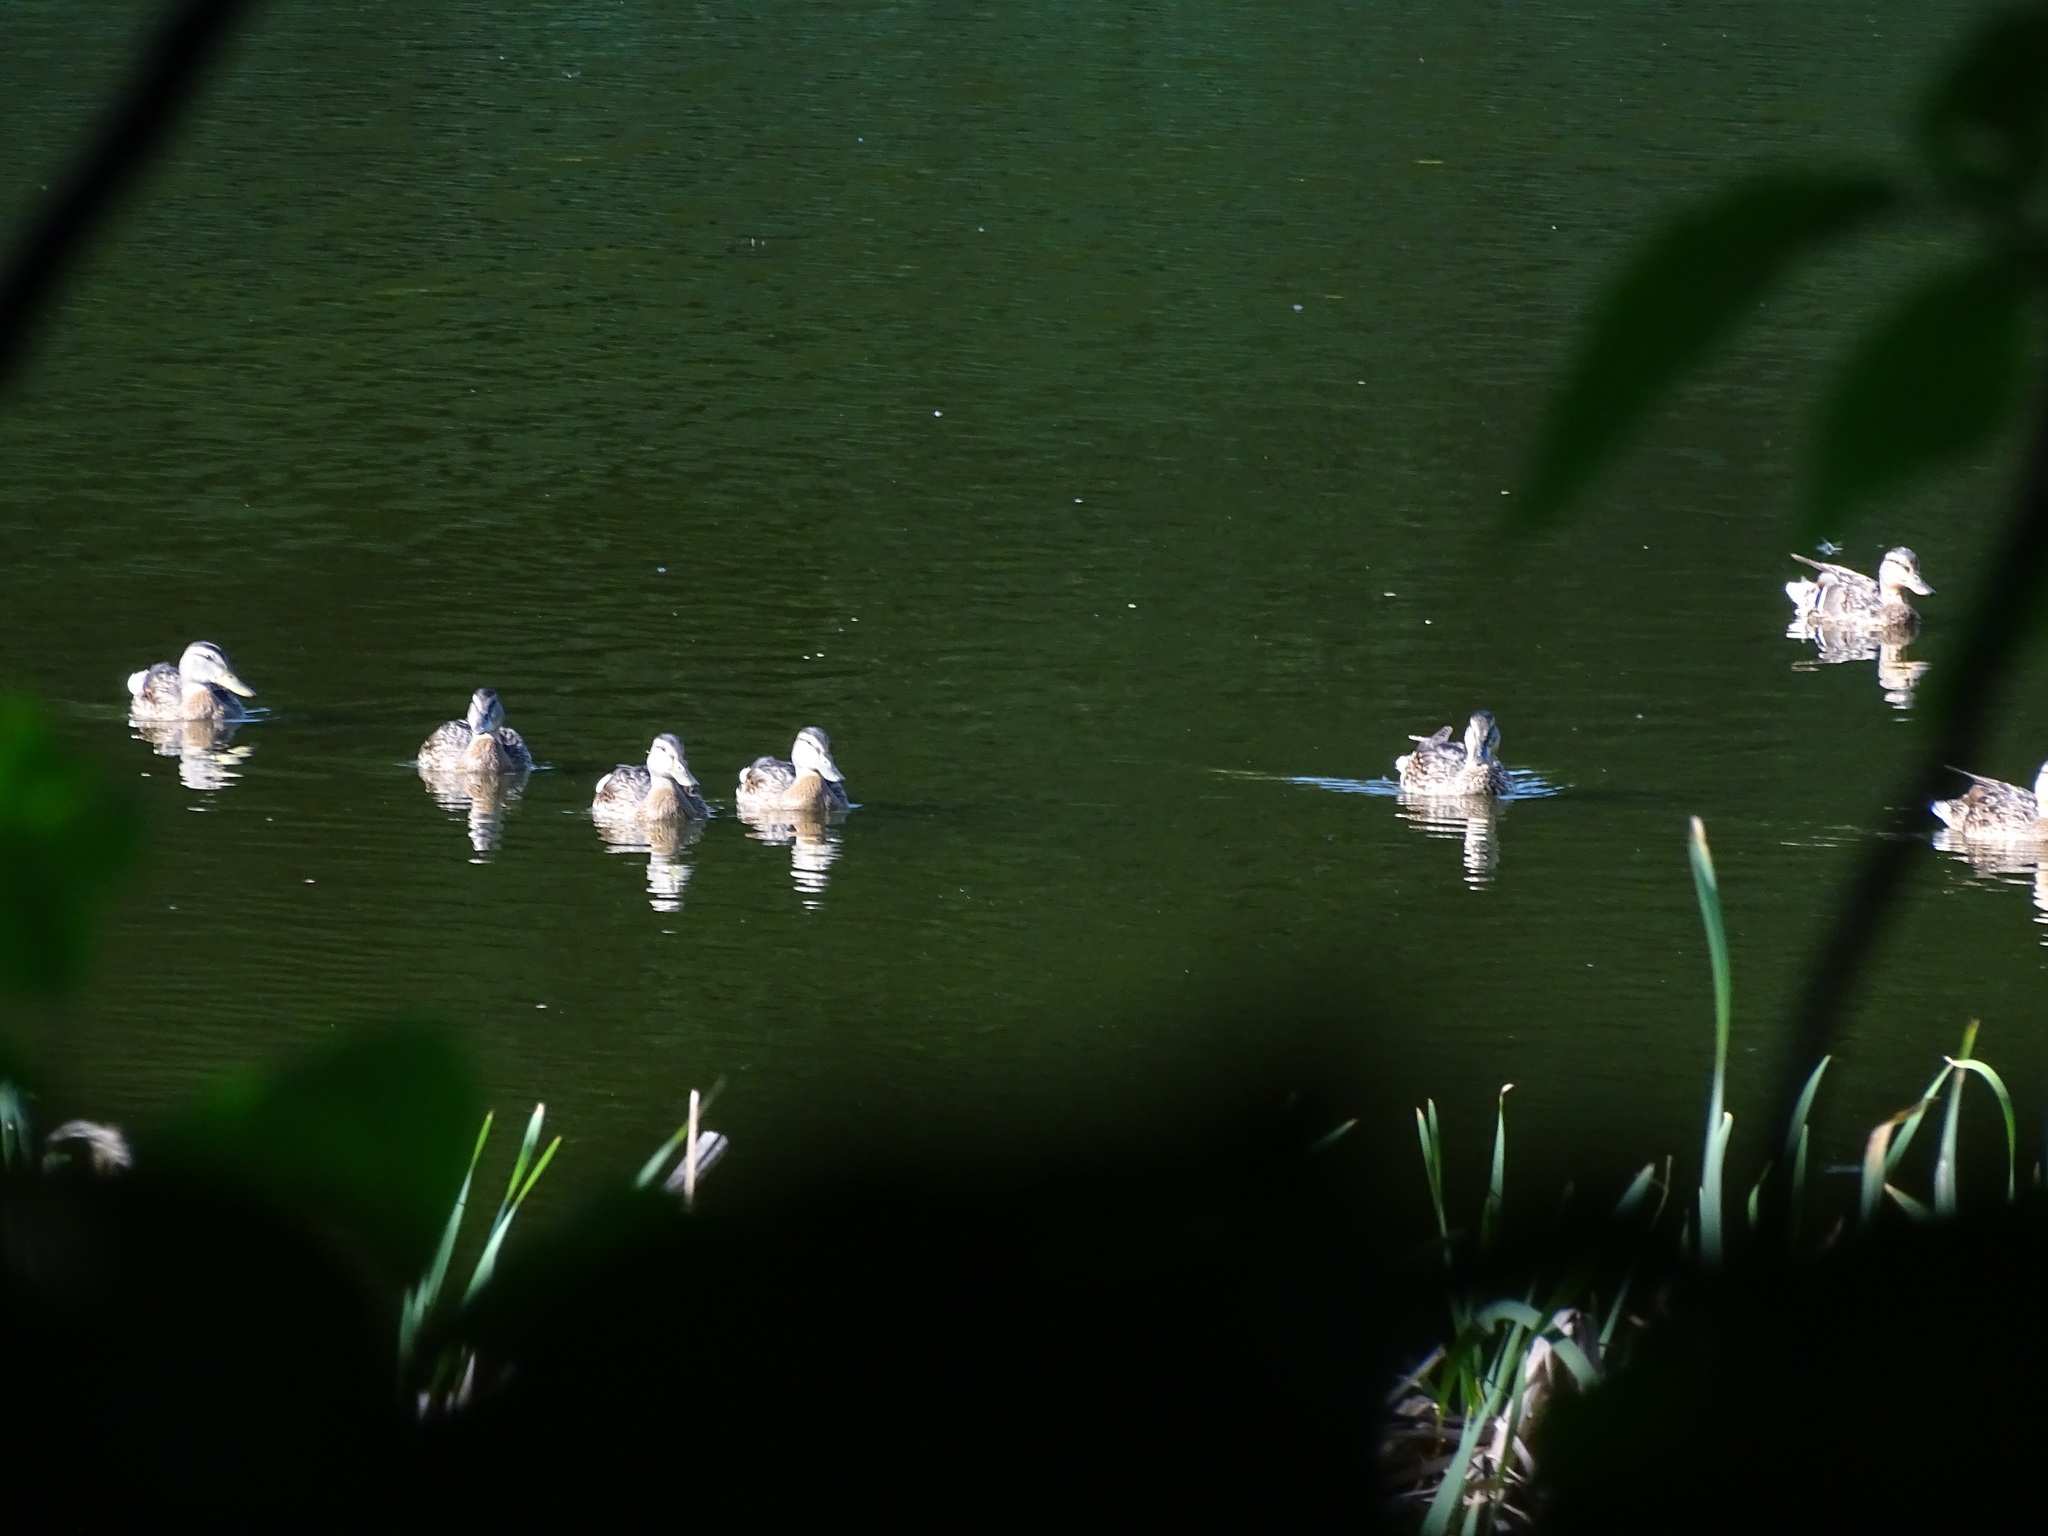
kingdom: Animalia
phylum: Chordata
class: Aves
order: Anseriformes
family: Anatidae
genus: Anas
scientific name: Anas platyrhynchos
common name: Mallard
